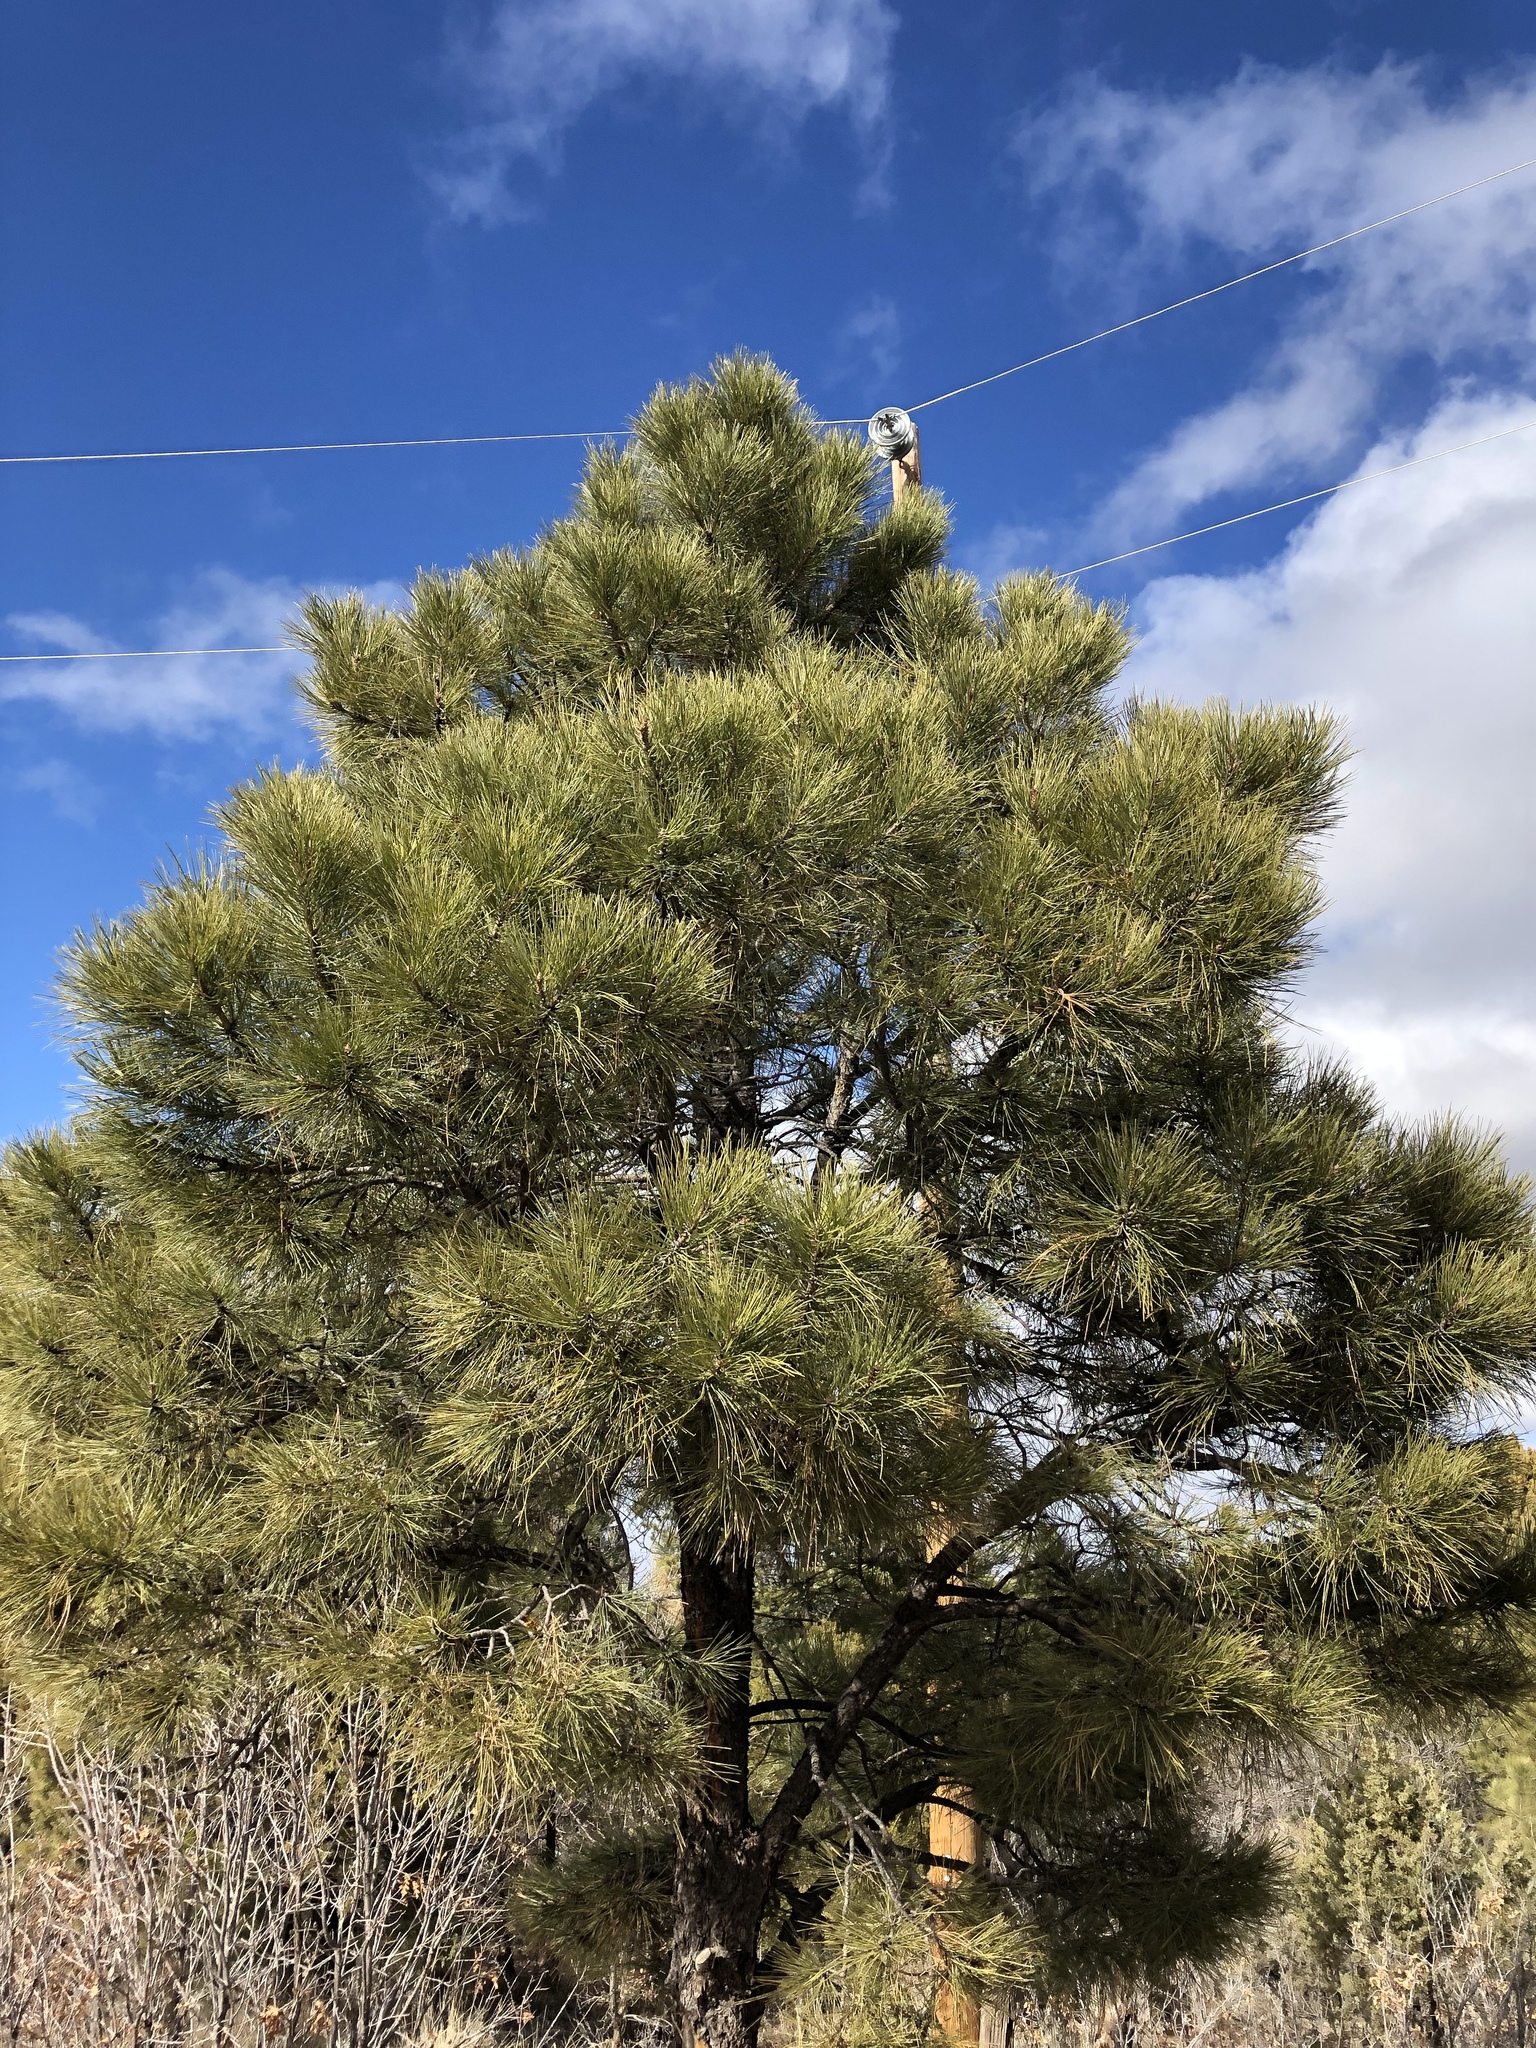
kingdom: Plantae
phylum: Tracheophyta
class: Pinopsida
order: Pinales
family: Pinaceae
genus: Pinus
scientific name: Pinus ponderosa
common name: Western yellow-pine
